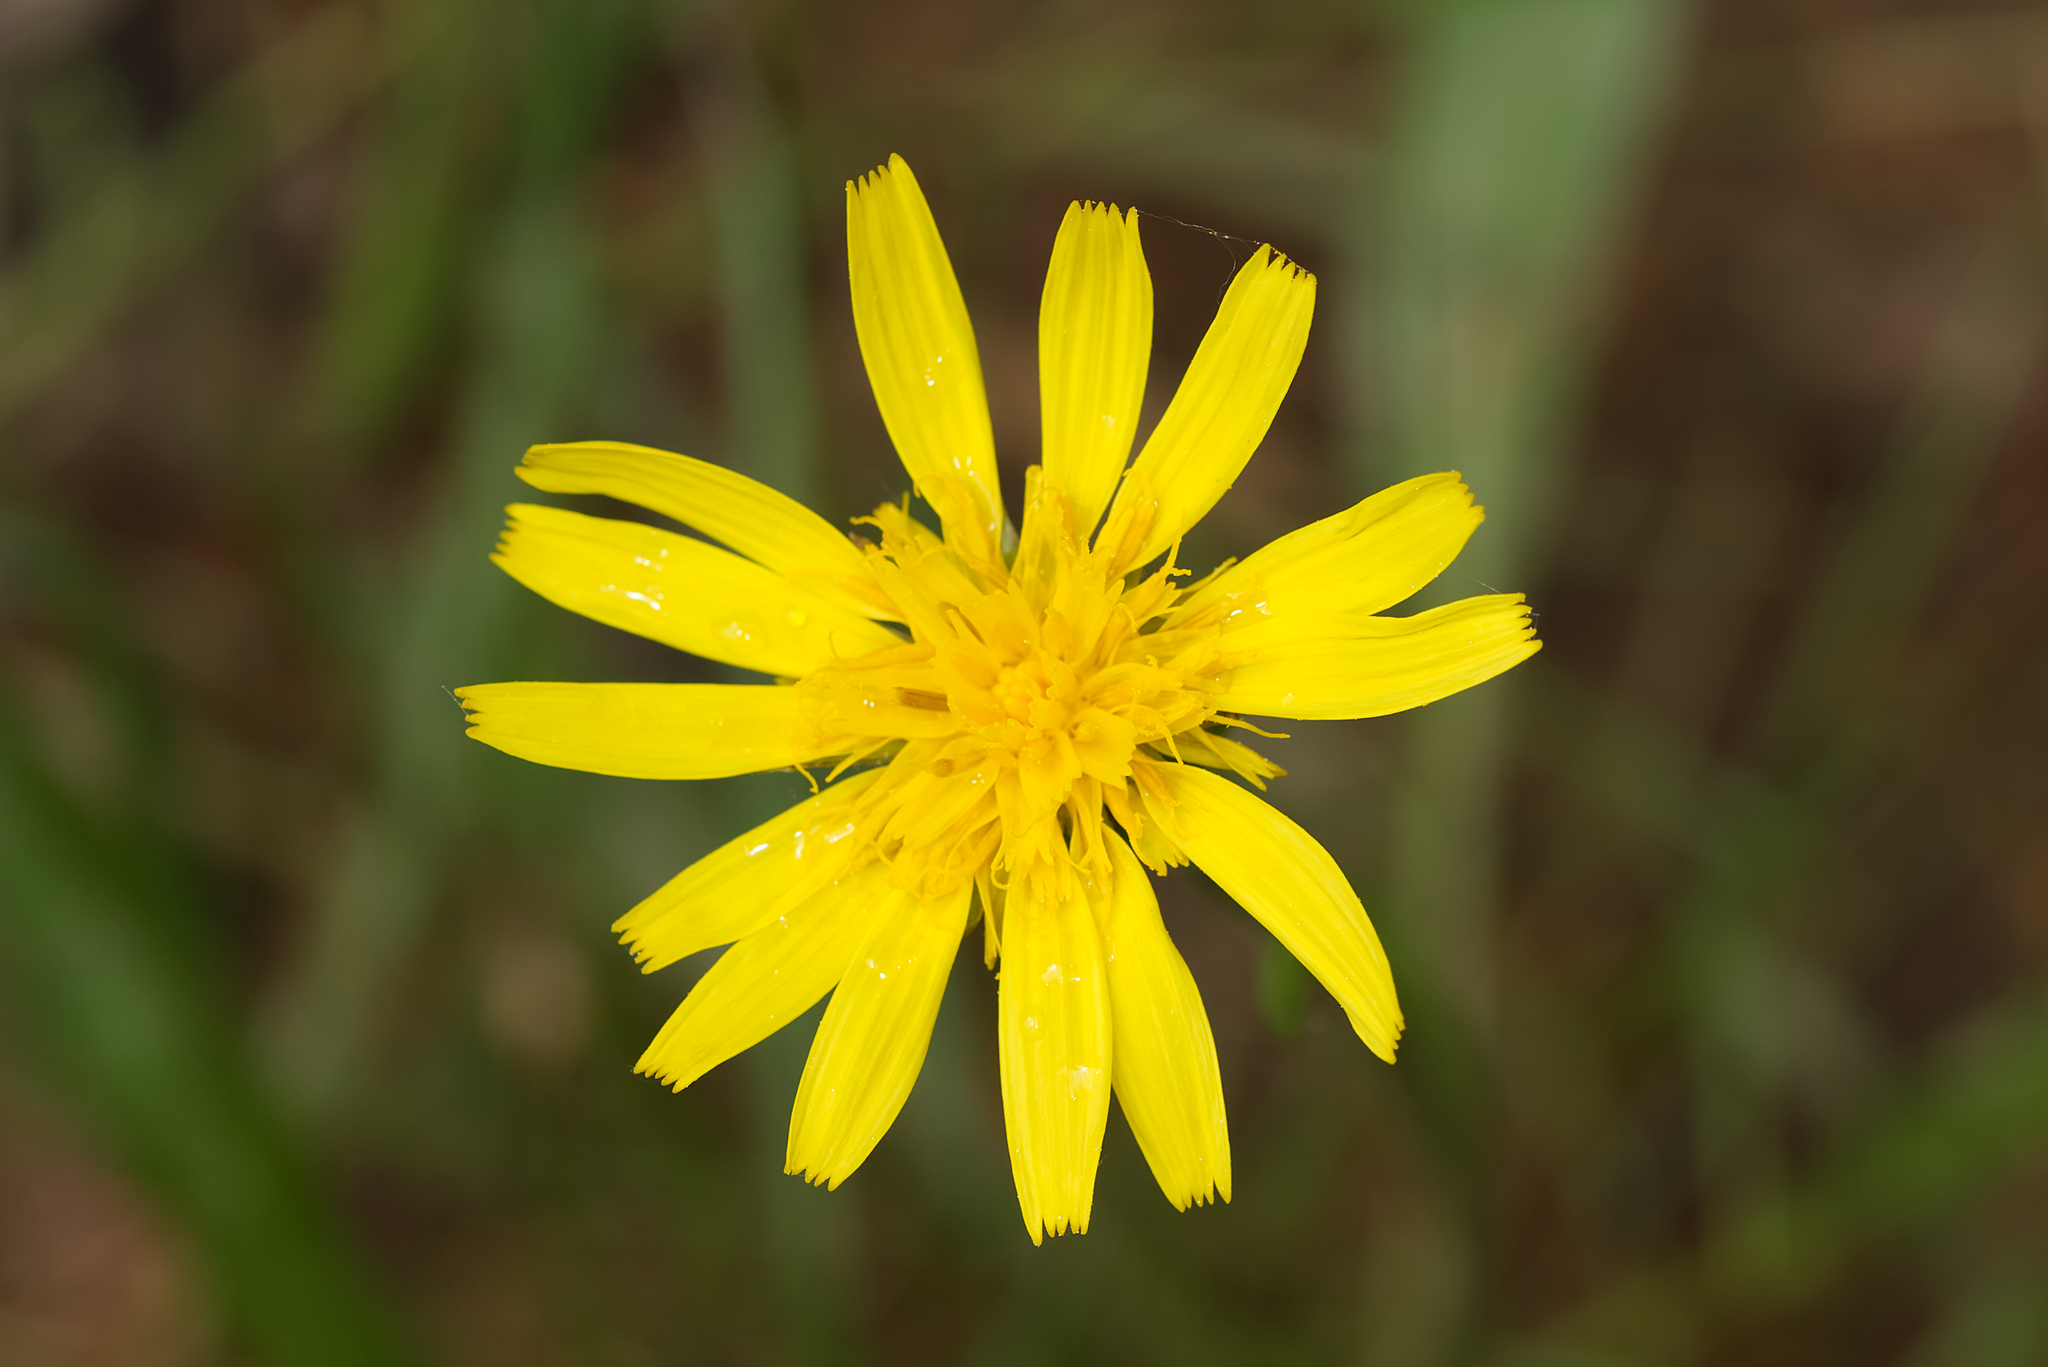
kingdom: Plantae
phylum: Tracheophyta
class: Magnoliopsida
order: Asterales
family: Asteraceae
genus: Scorzonera
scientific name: Scorzonera humilis
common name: Viper's-grass
